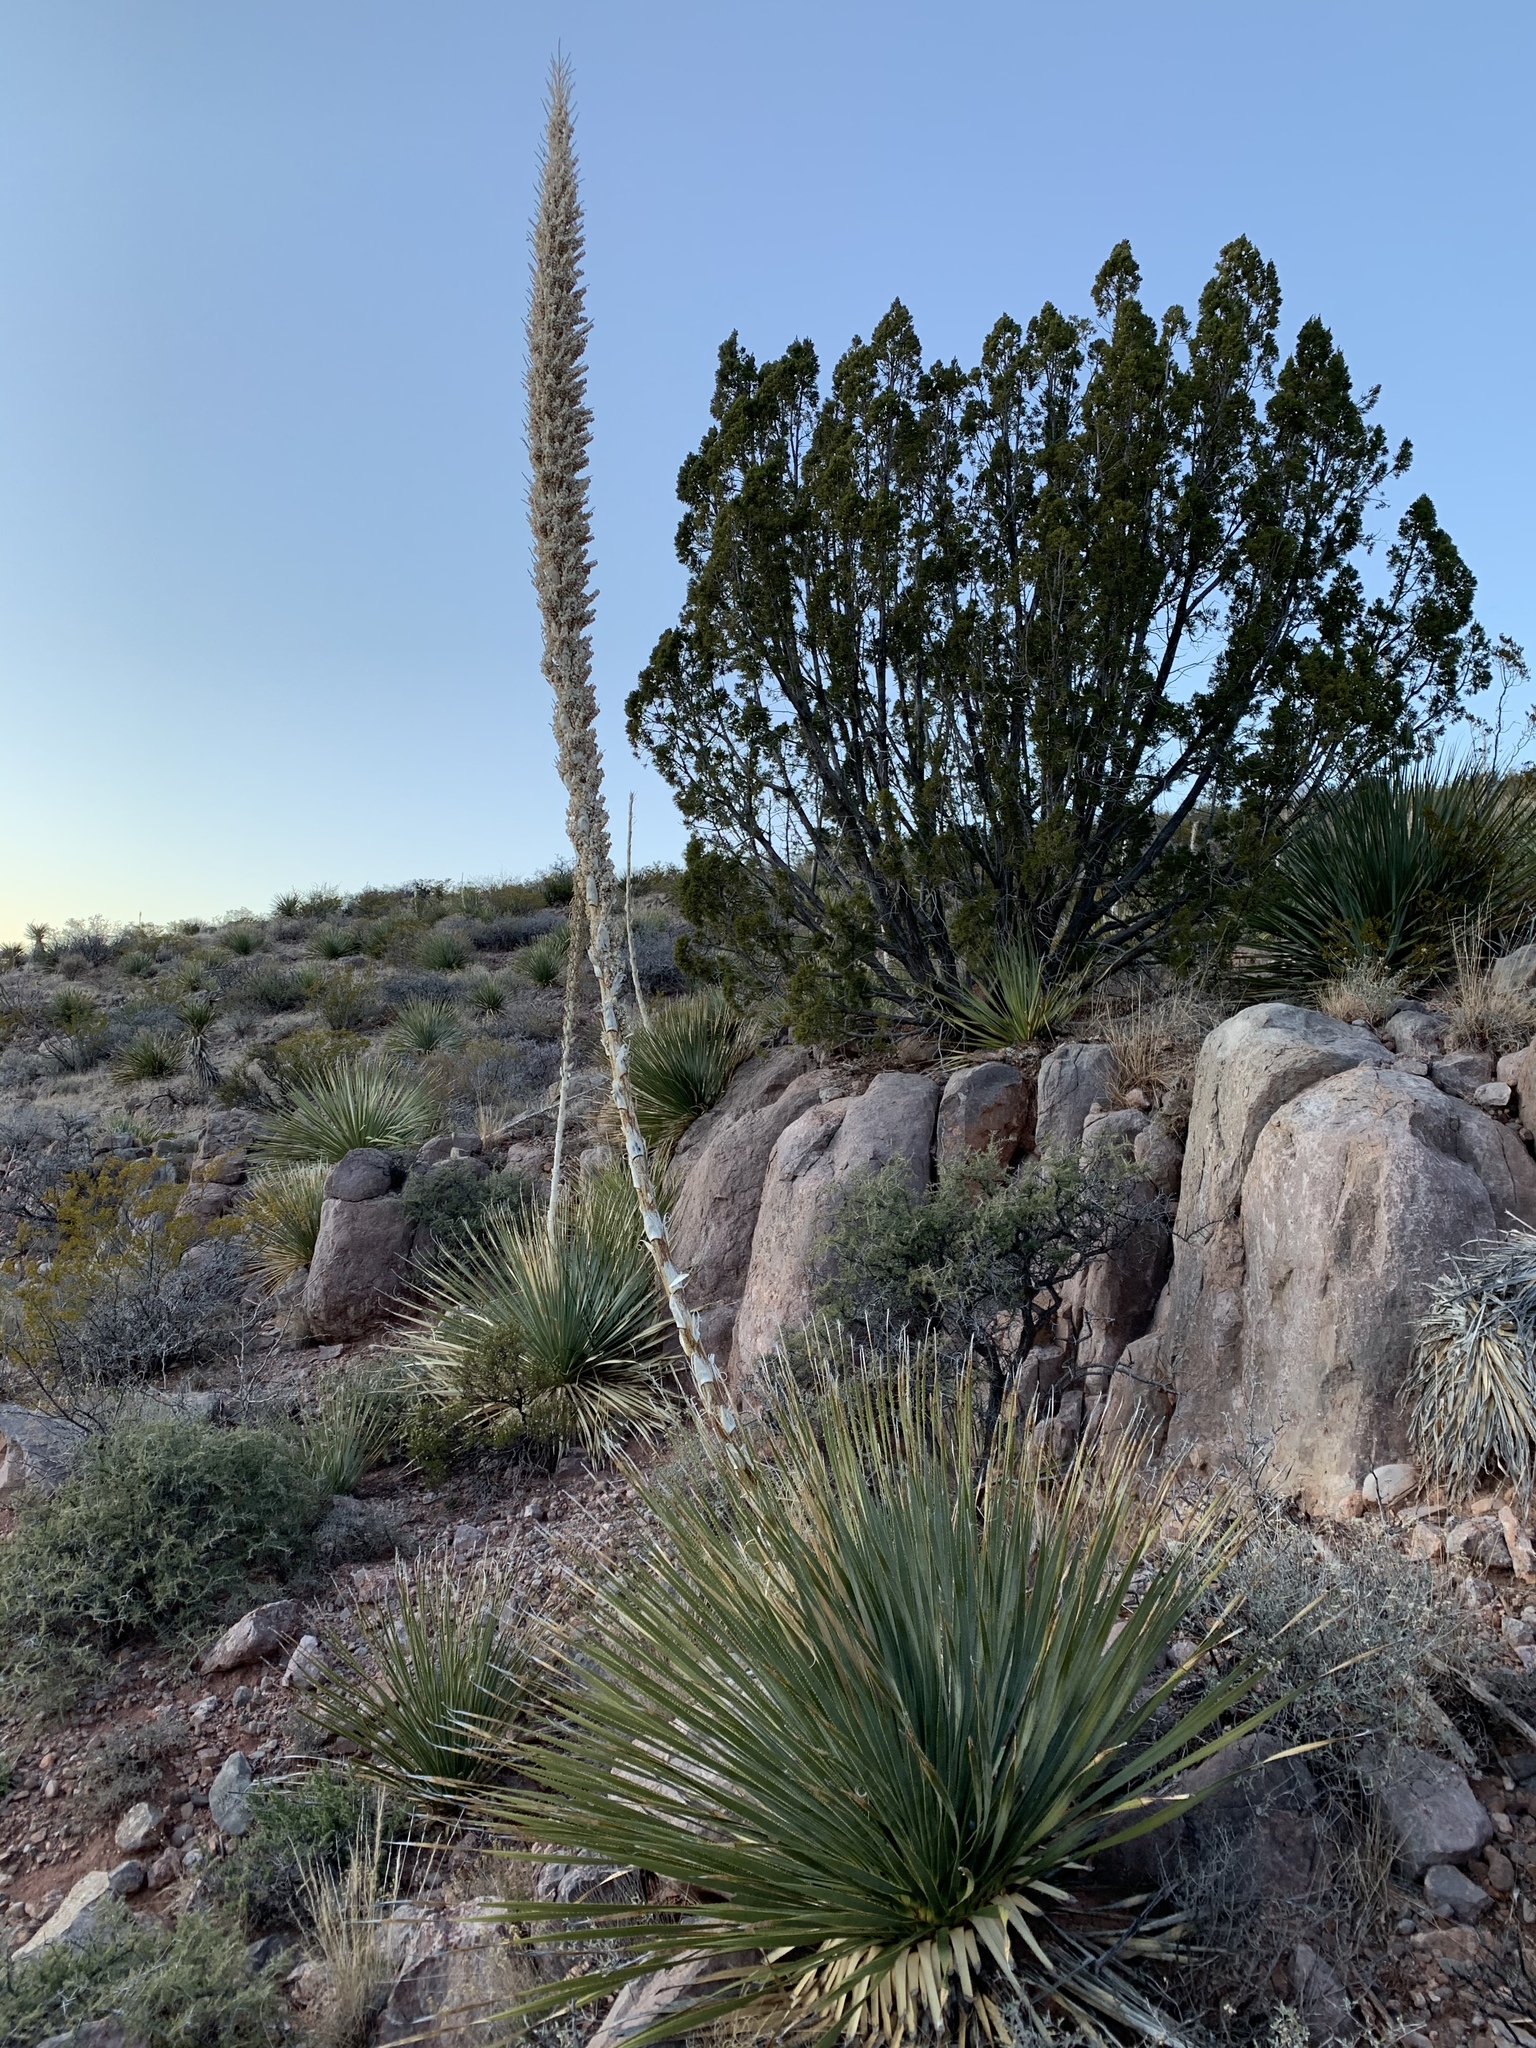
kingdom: Plantae
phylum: Tracheophyta
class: Liliopsida
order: Asparagales
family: Asparagaceae
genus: Dasylirion
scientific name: Dasylirion wheeleri
